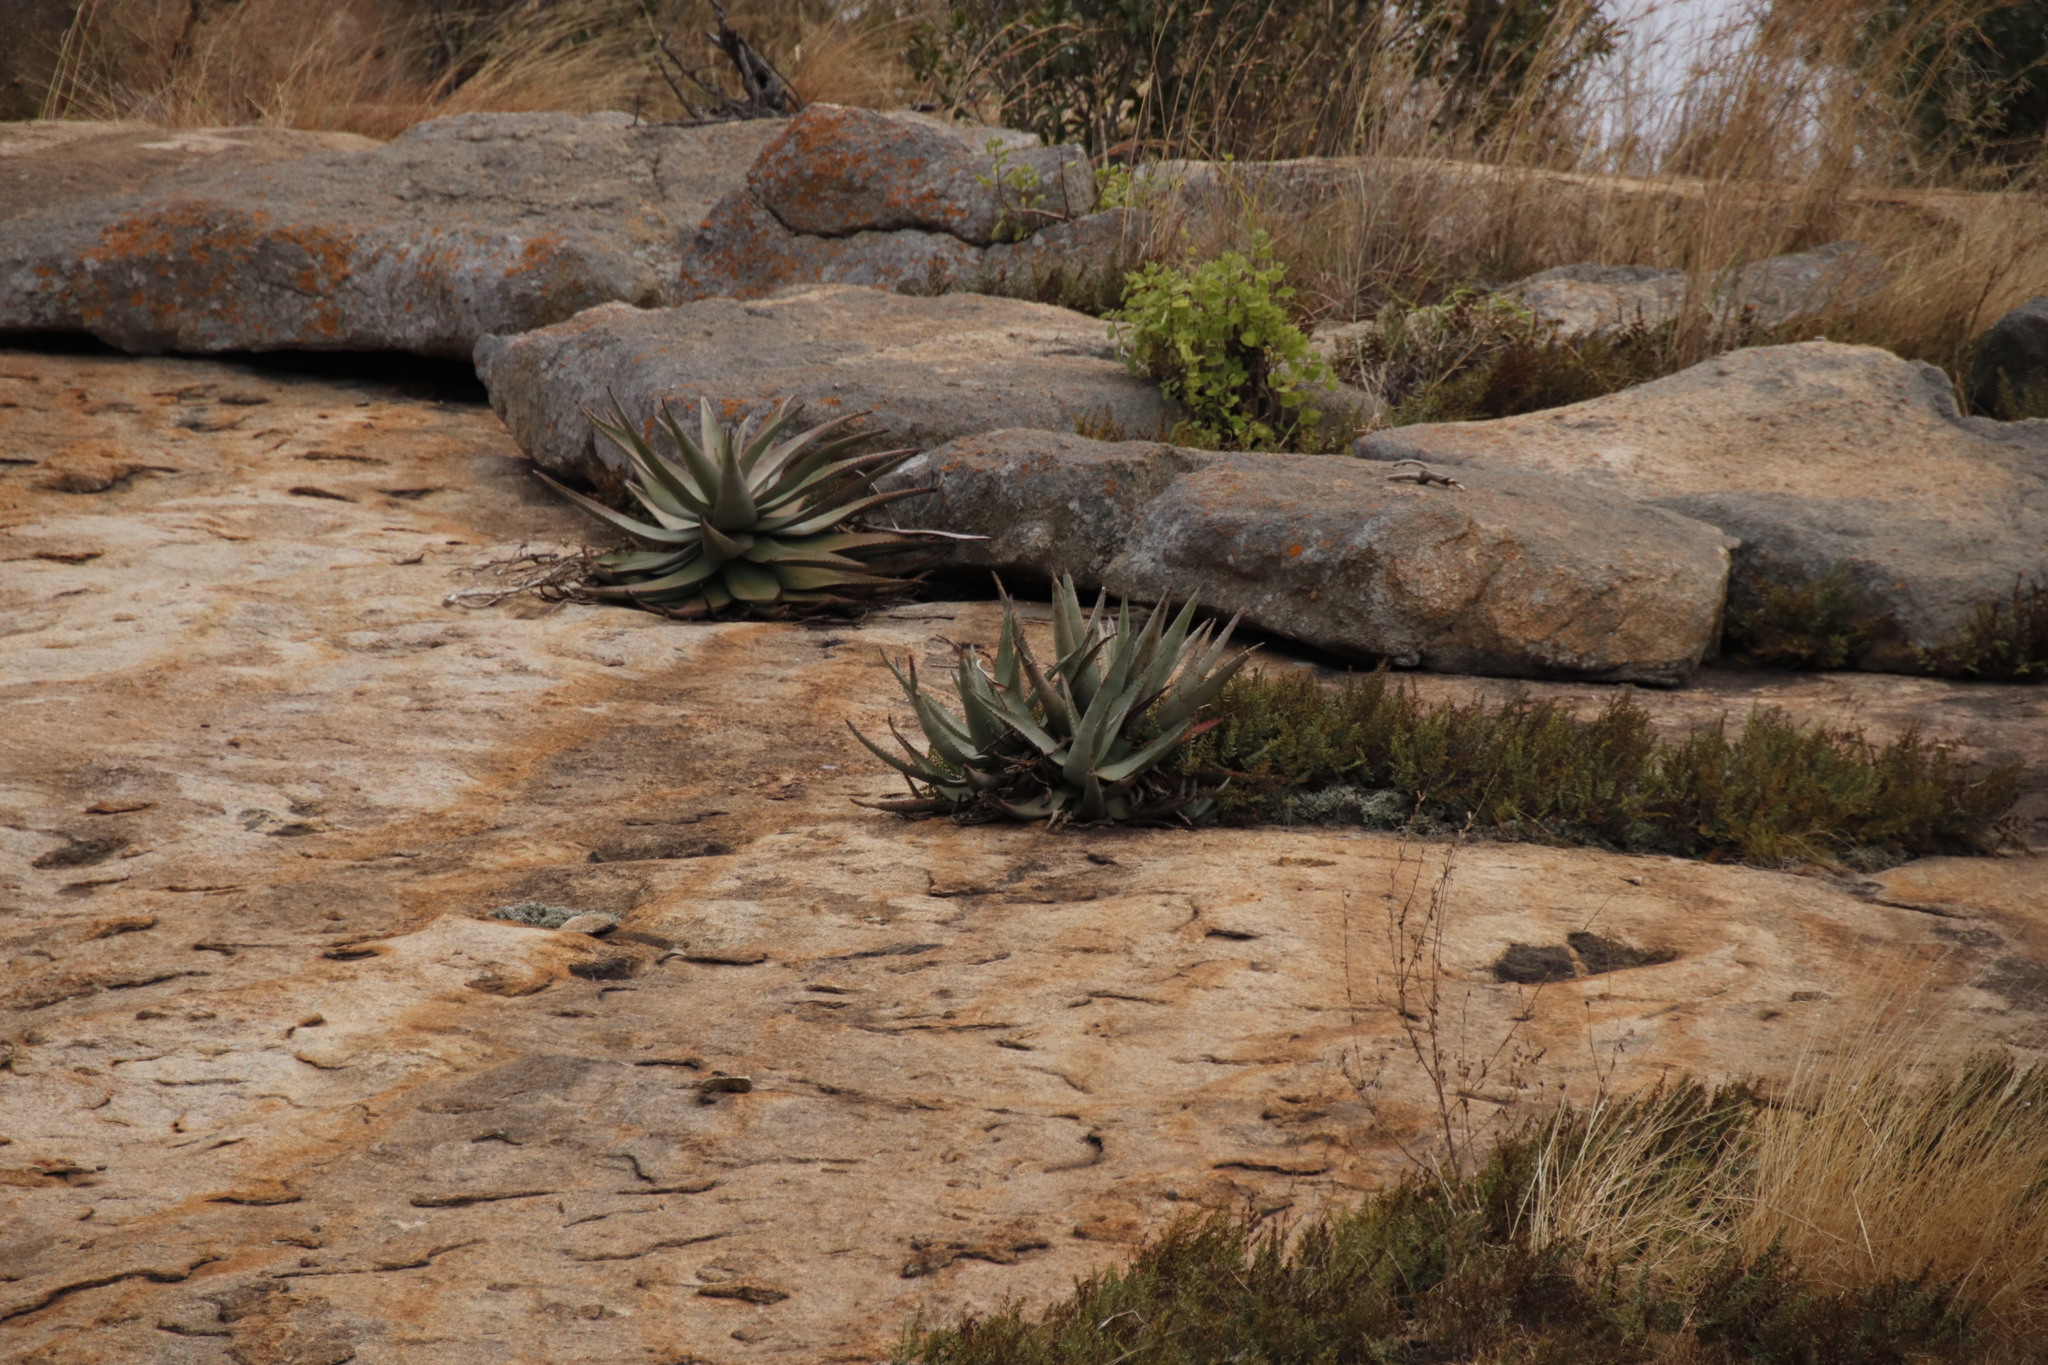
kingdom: Plantae
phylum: Tracheophyta
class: Liliopsida
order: Asparagales
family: Asphodelaceae
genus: Aloe
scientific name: Aloe petricola
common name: Rock aloe
